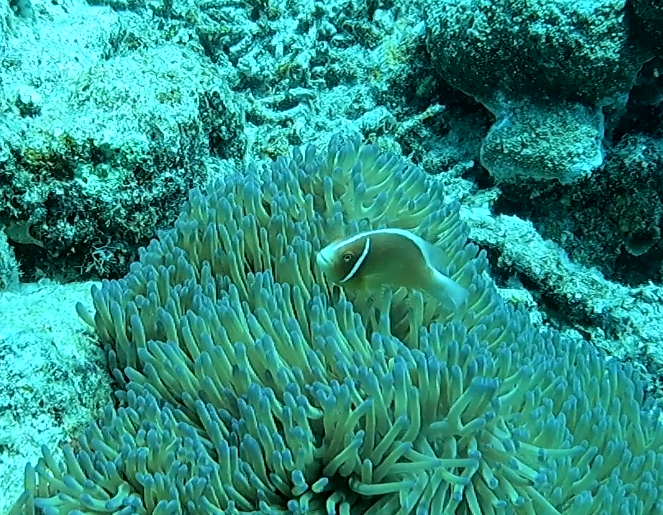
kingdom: Animalia
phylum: Chordata
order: Perciformes
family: Pomacentridae
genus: Amphiprion
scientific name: Amphiprion perideraion
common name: Pink anemonefish
